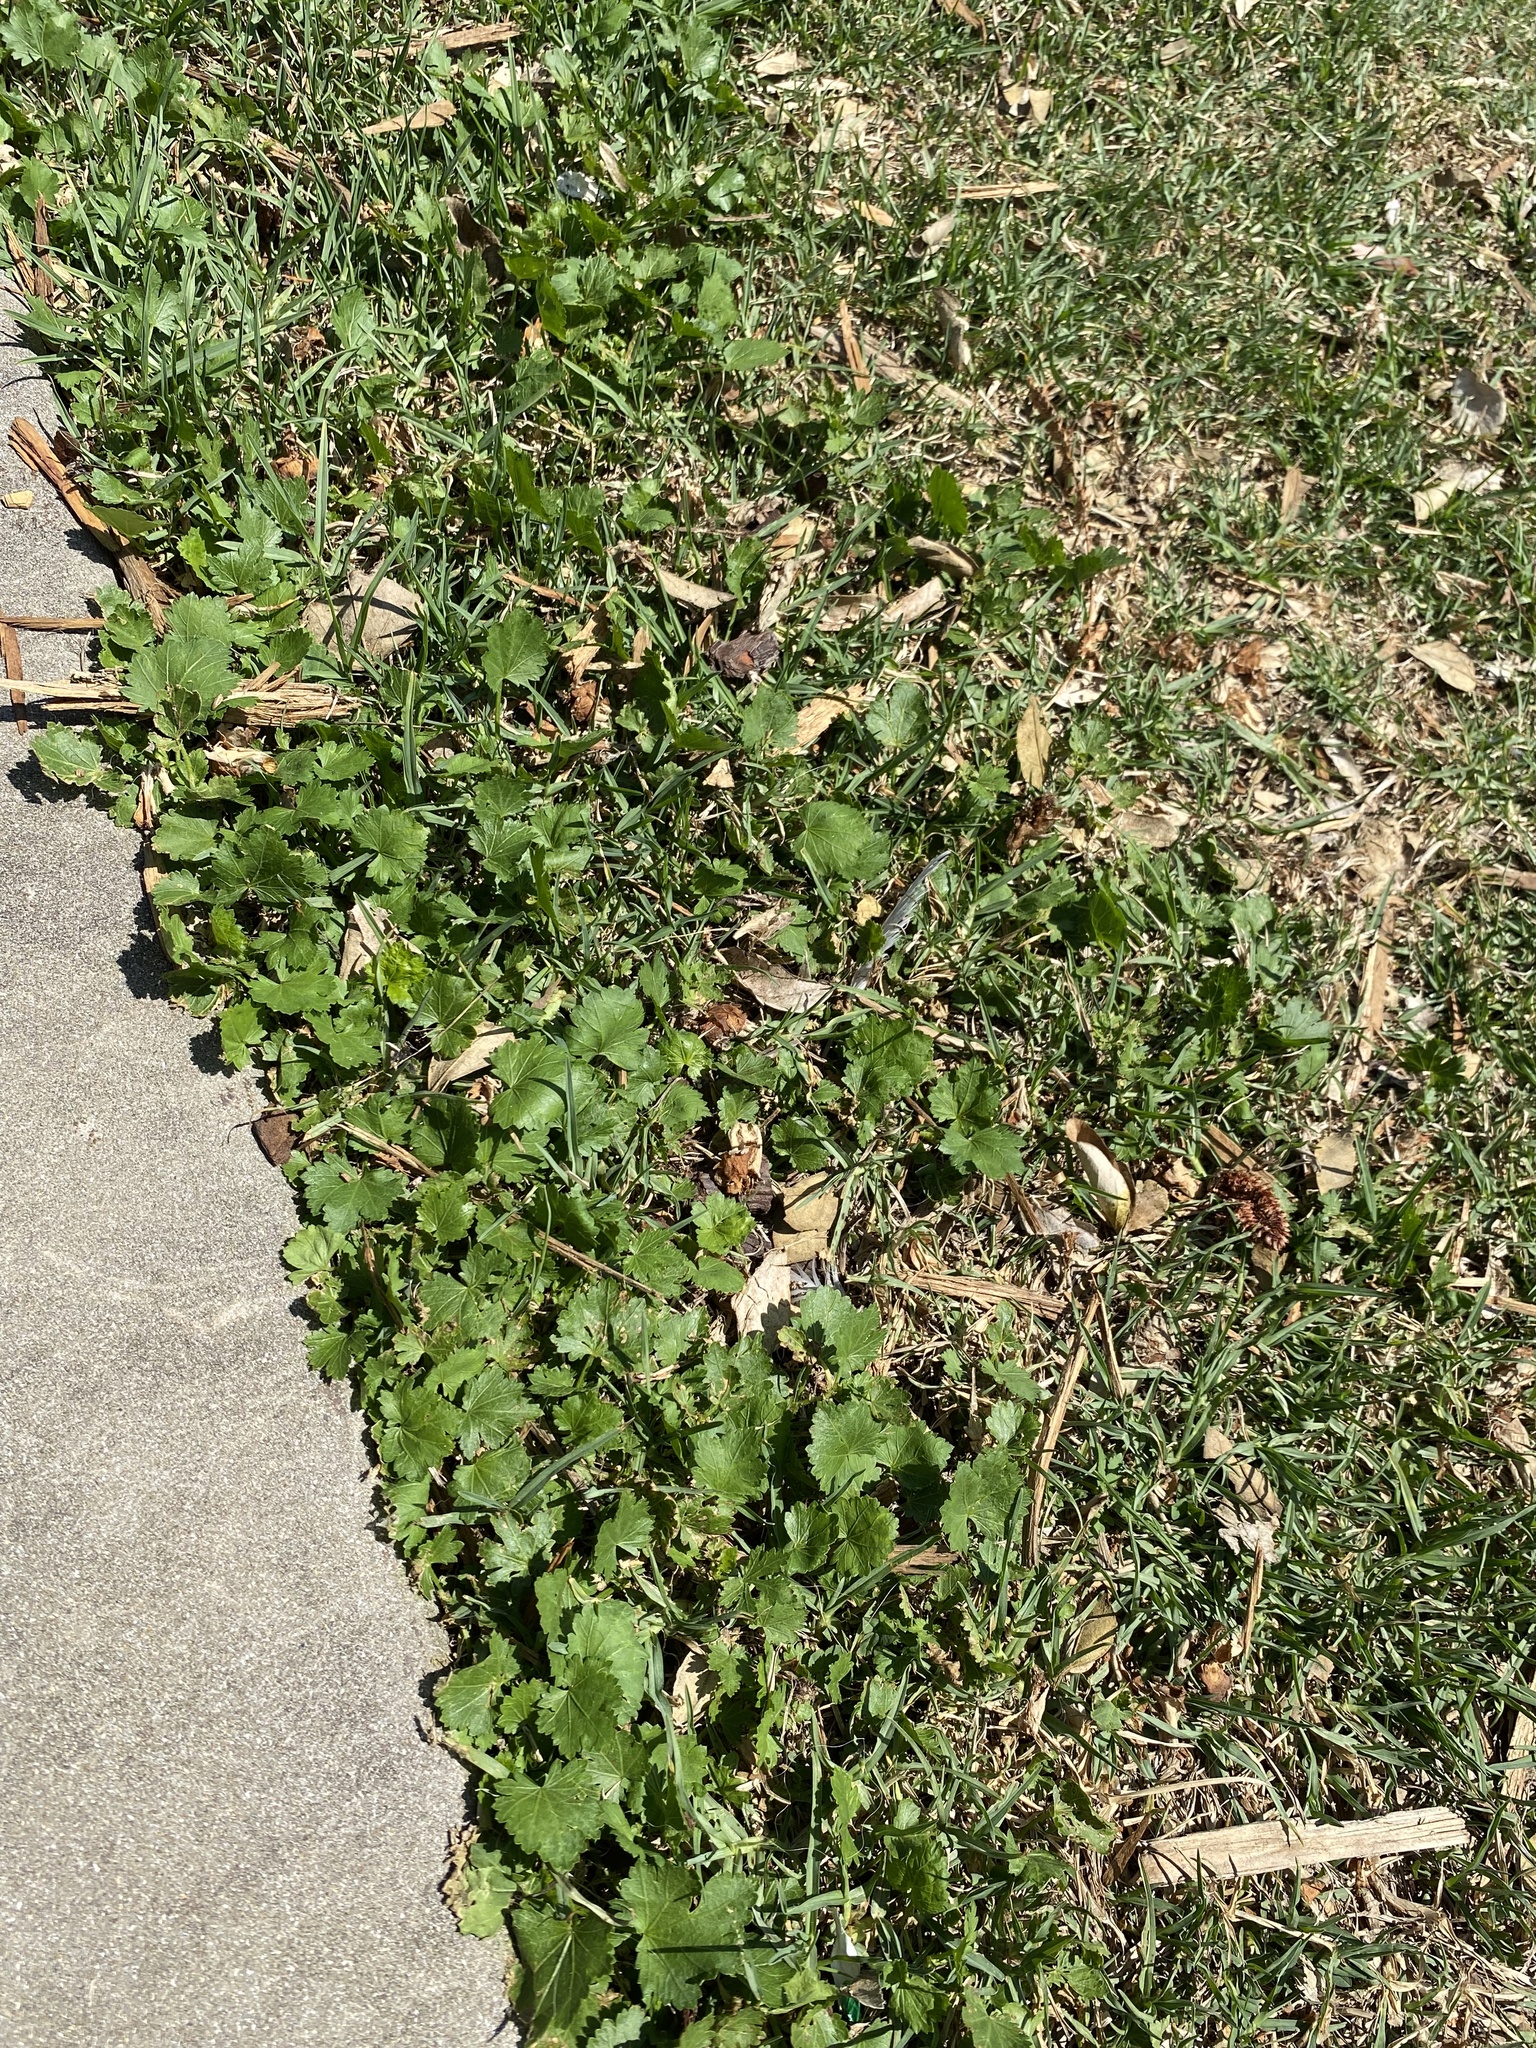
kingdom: Plantae
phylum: Tracheophyta
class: Magnoliopsida
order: Malvales
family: Malvaceae
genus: Modiola
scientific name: Modiola caroliniana
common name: Carolina bristlemallow
